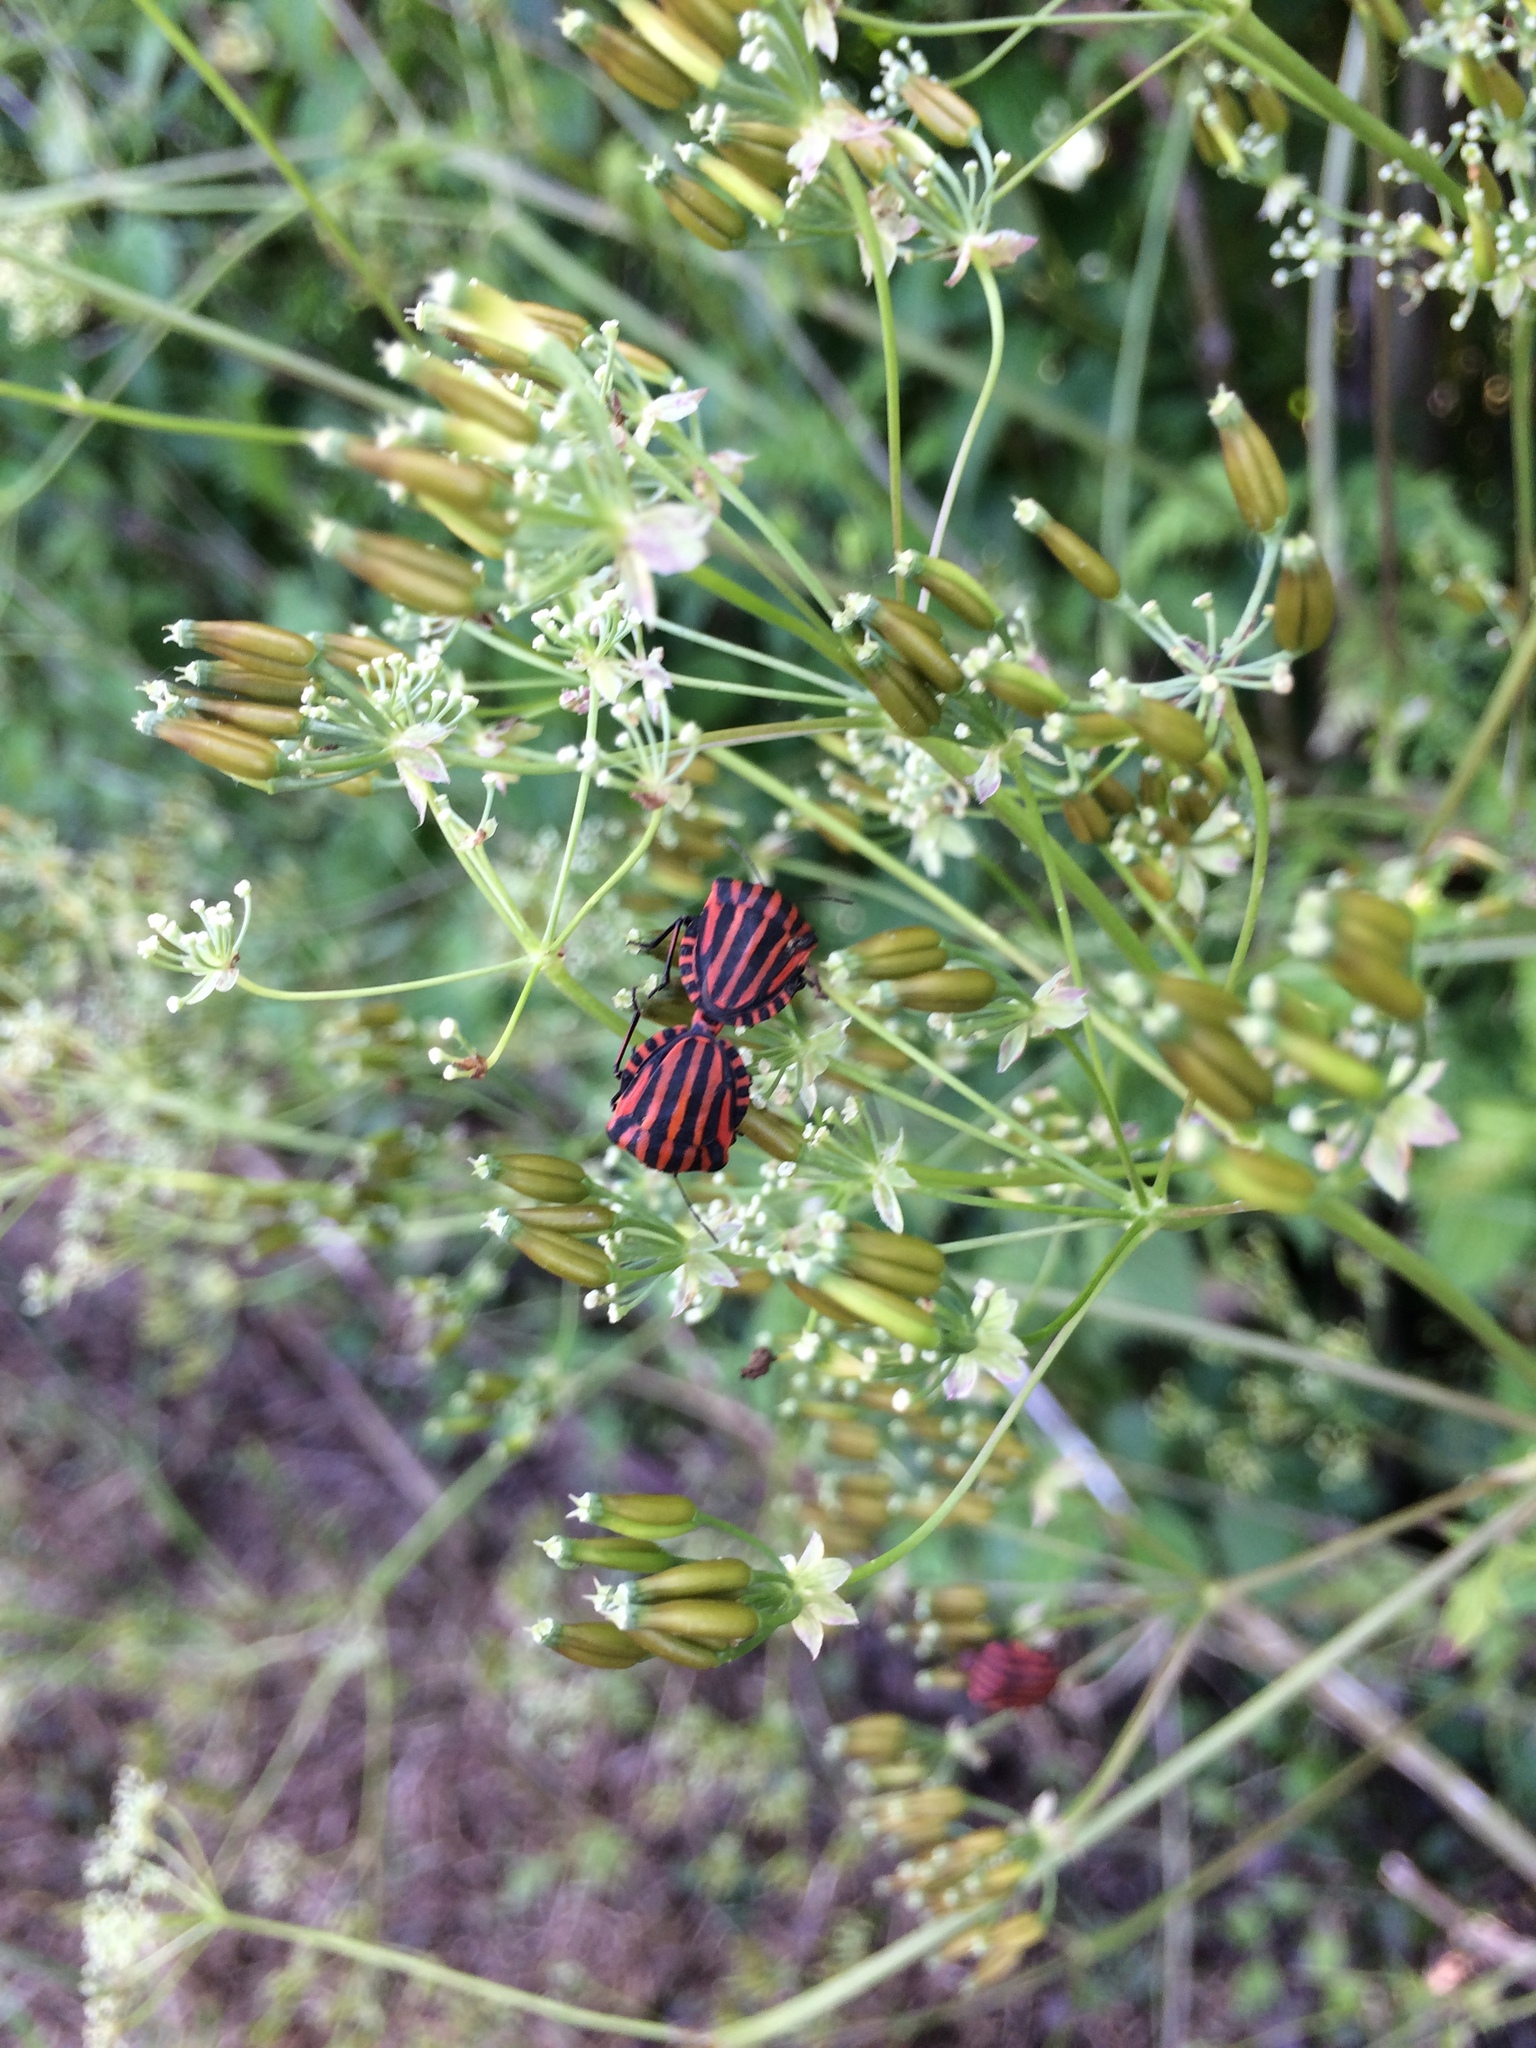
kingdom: Animalia
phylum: Arthropoda
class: Insecta
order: Hemiptera
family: Pentatomidae
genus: Graphosoma
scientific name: Graphosoma italicum
